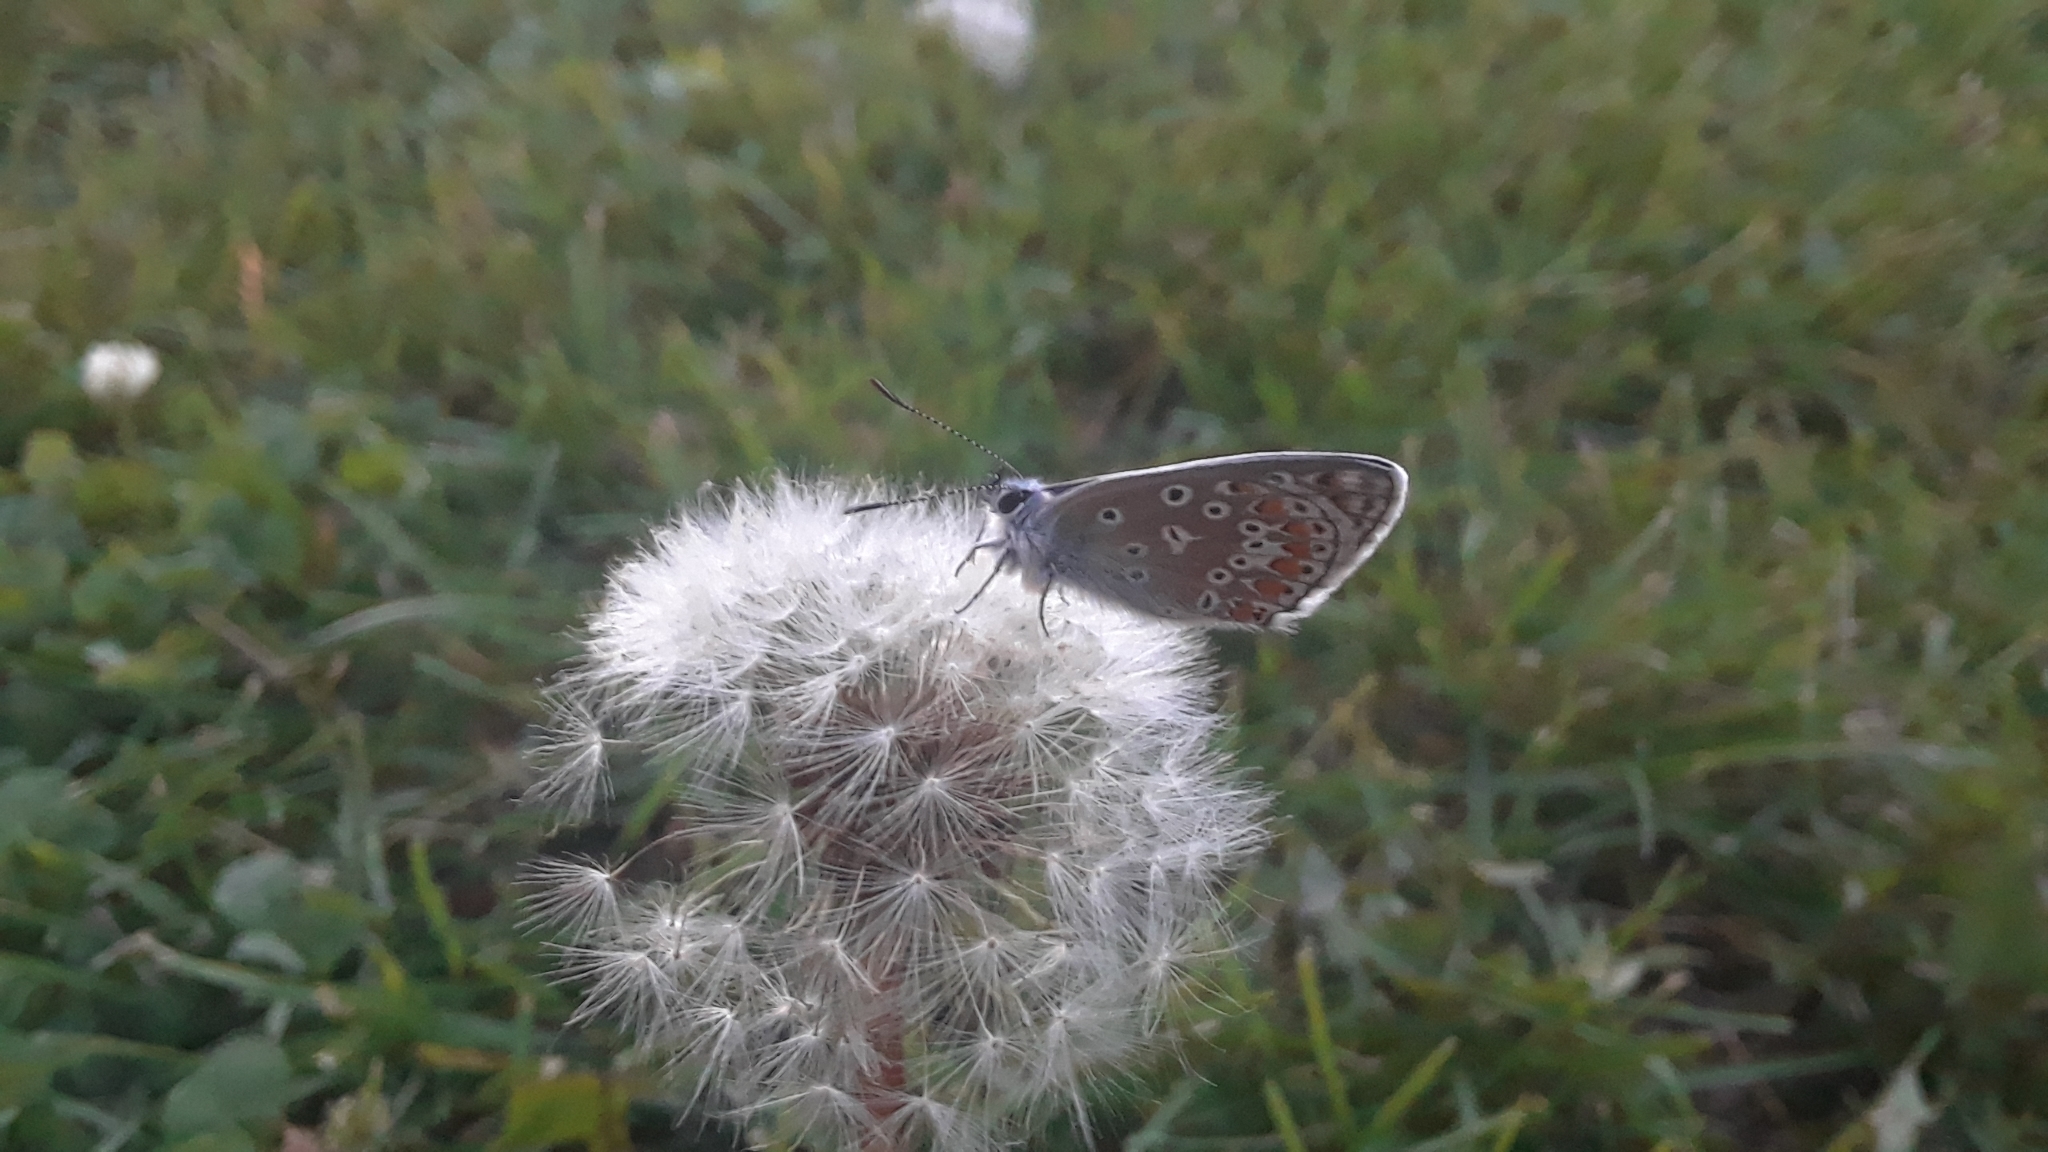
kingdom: Animalia
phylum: Arthropoda
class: Insecta
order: Lepidoptera
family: Lycaenidae
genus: Polyommatus
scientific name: Polyommatus icarus
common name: Common blue
